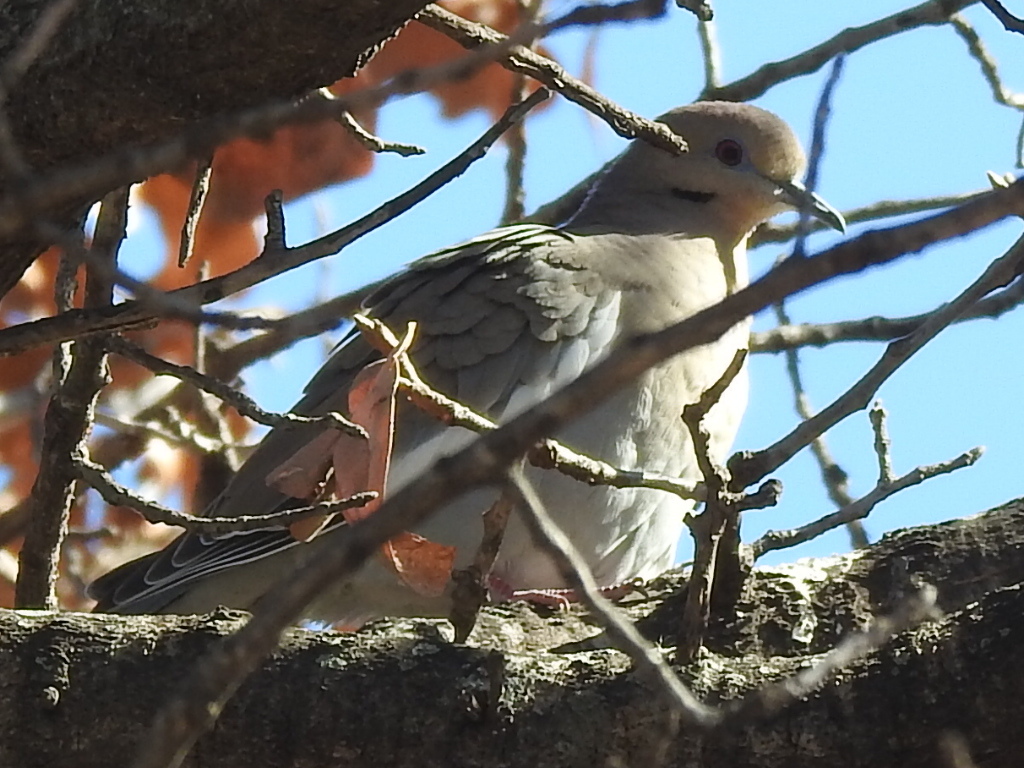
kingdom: Animalia
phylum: Chordata
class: Aves
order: Columbiformes
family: Columbidae
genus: Zenaida
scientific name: Zenaida asiatica
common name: White-winged dove
